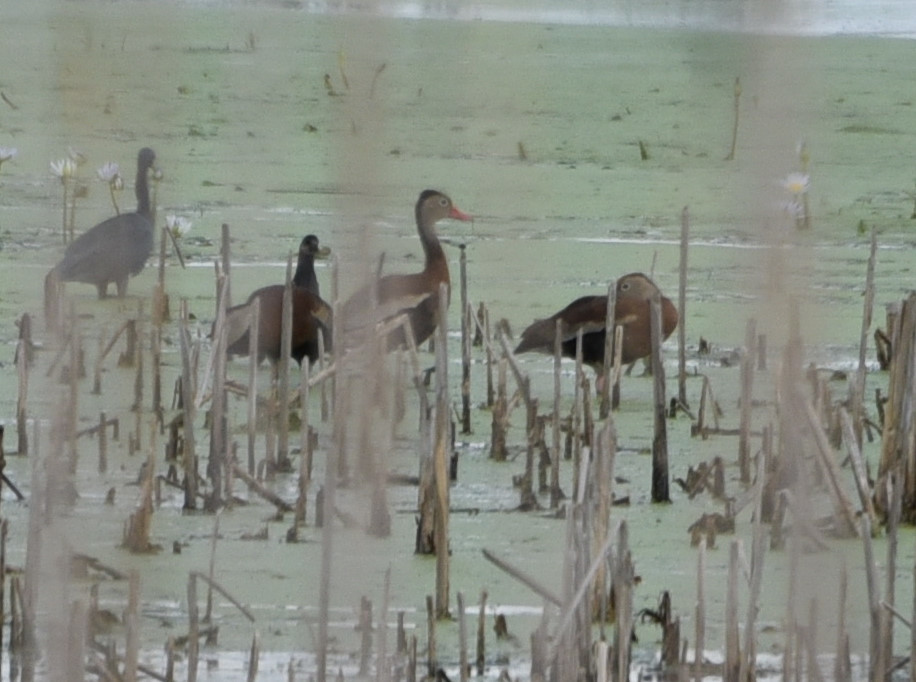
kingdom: Animalia
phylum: Chordata
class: Aves
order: Anseriformes
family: Anatidae
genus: Dendrocygna
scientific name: Dendrocygna autumnalis
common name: Black-bellied whistling duck
